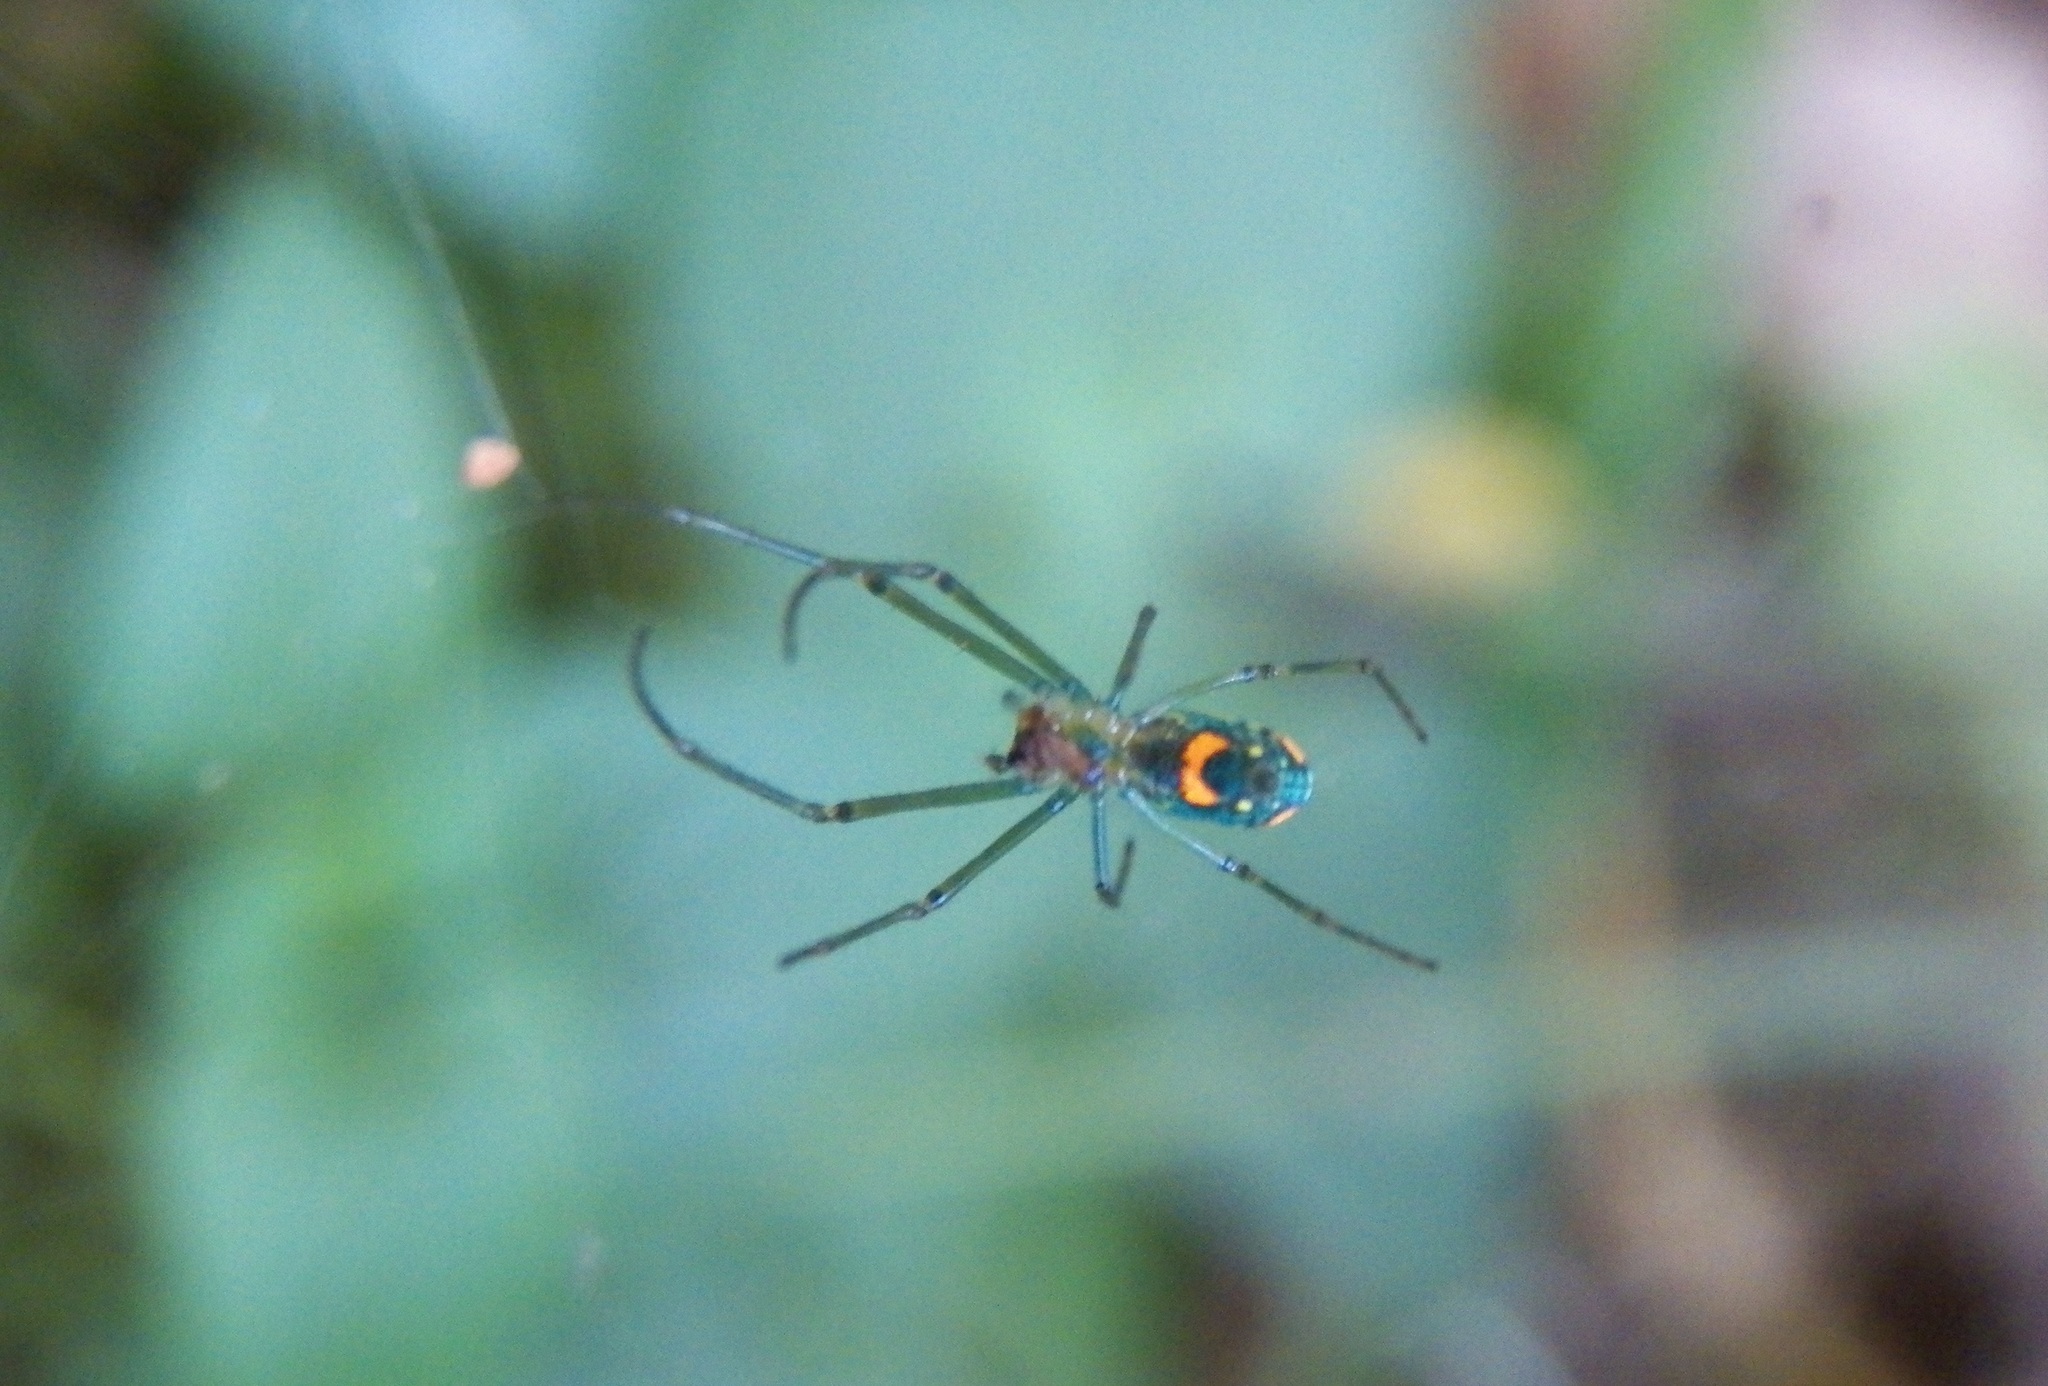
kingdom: Animalia
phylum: Arthropoda
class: Arachnida
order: Araneae
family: Tetragnathidae
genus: Leucauge
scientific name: Leucauge argyrobapta
